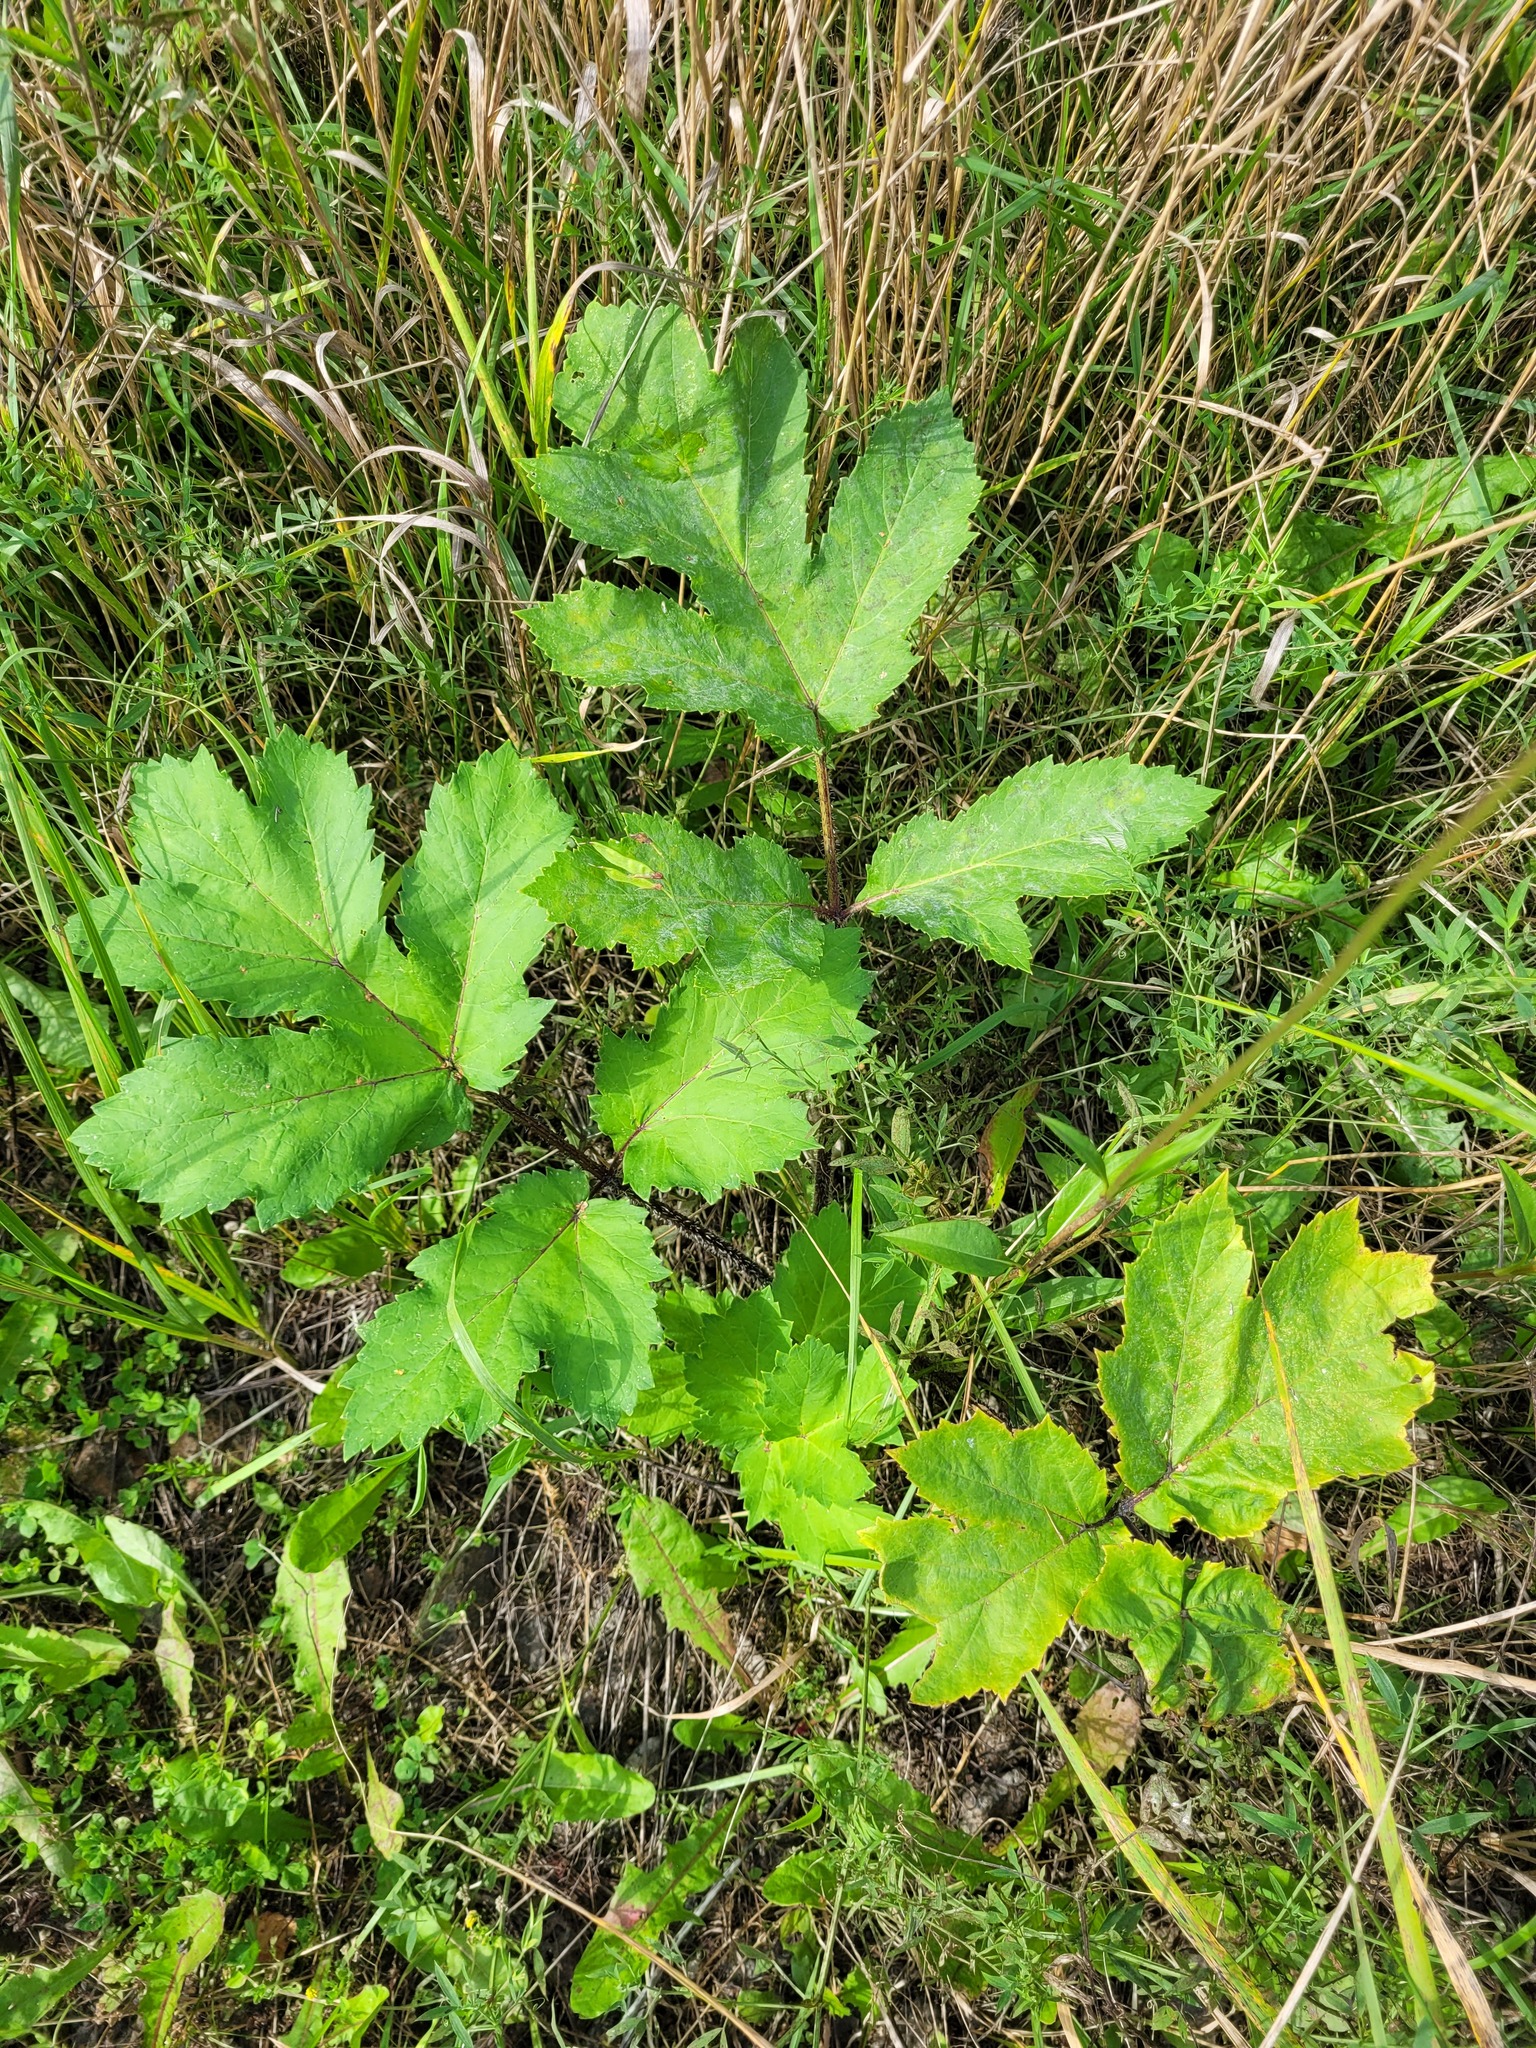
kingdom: Plantae
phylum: Tracheophyta
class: Magnoliopsida
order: Apiales
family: Apiaceae
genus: Heracleum
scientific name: Heracleum sosnowskyi
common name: Sosnowsky's hogweed
